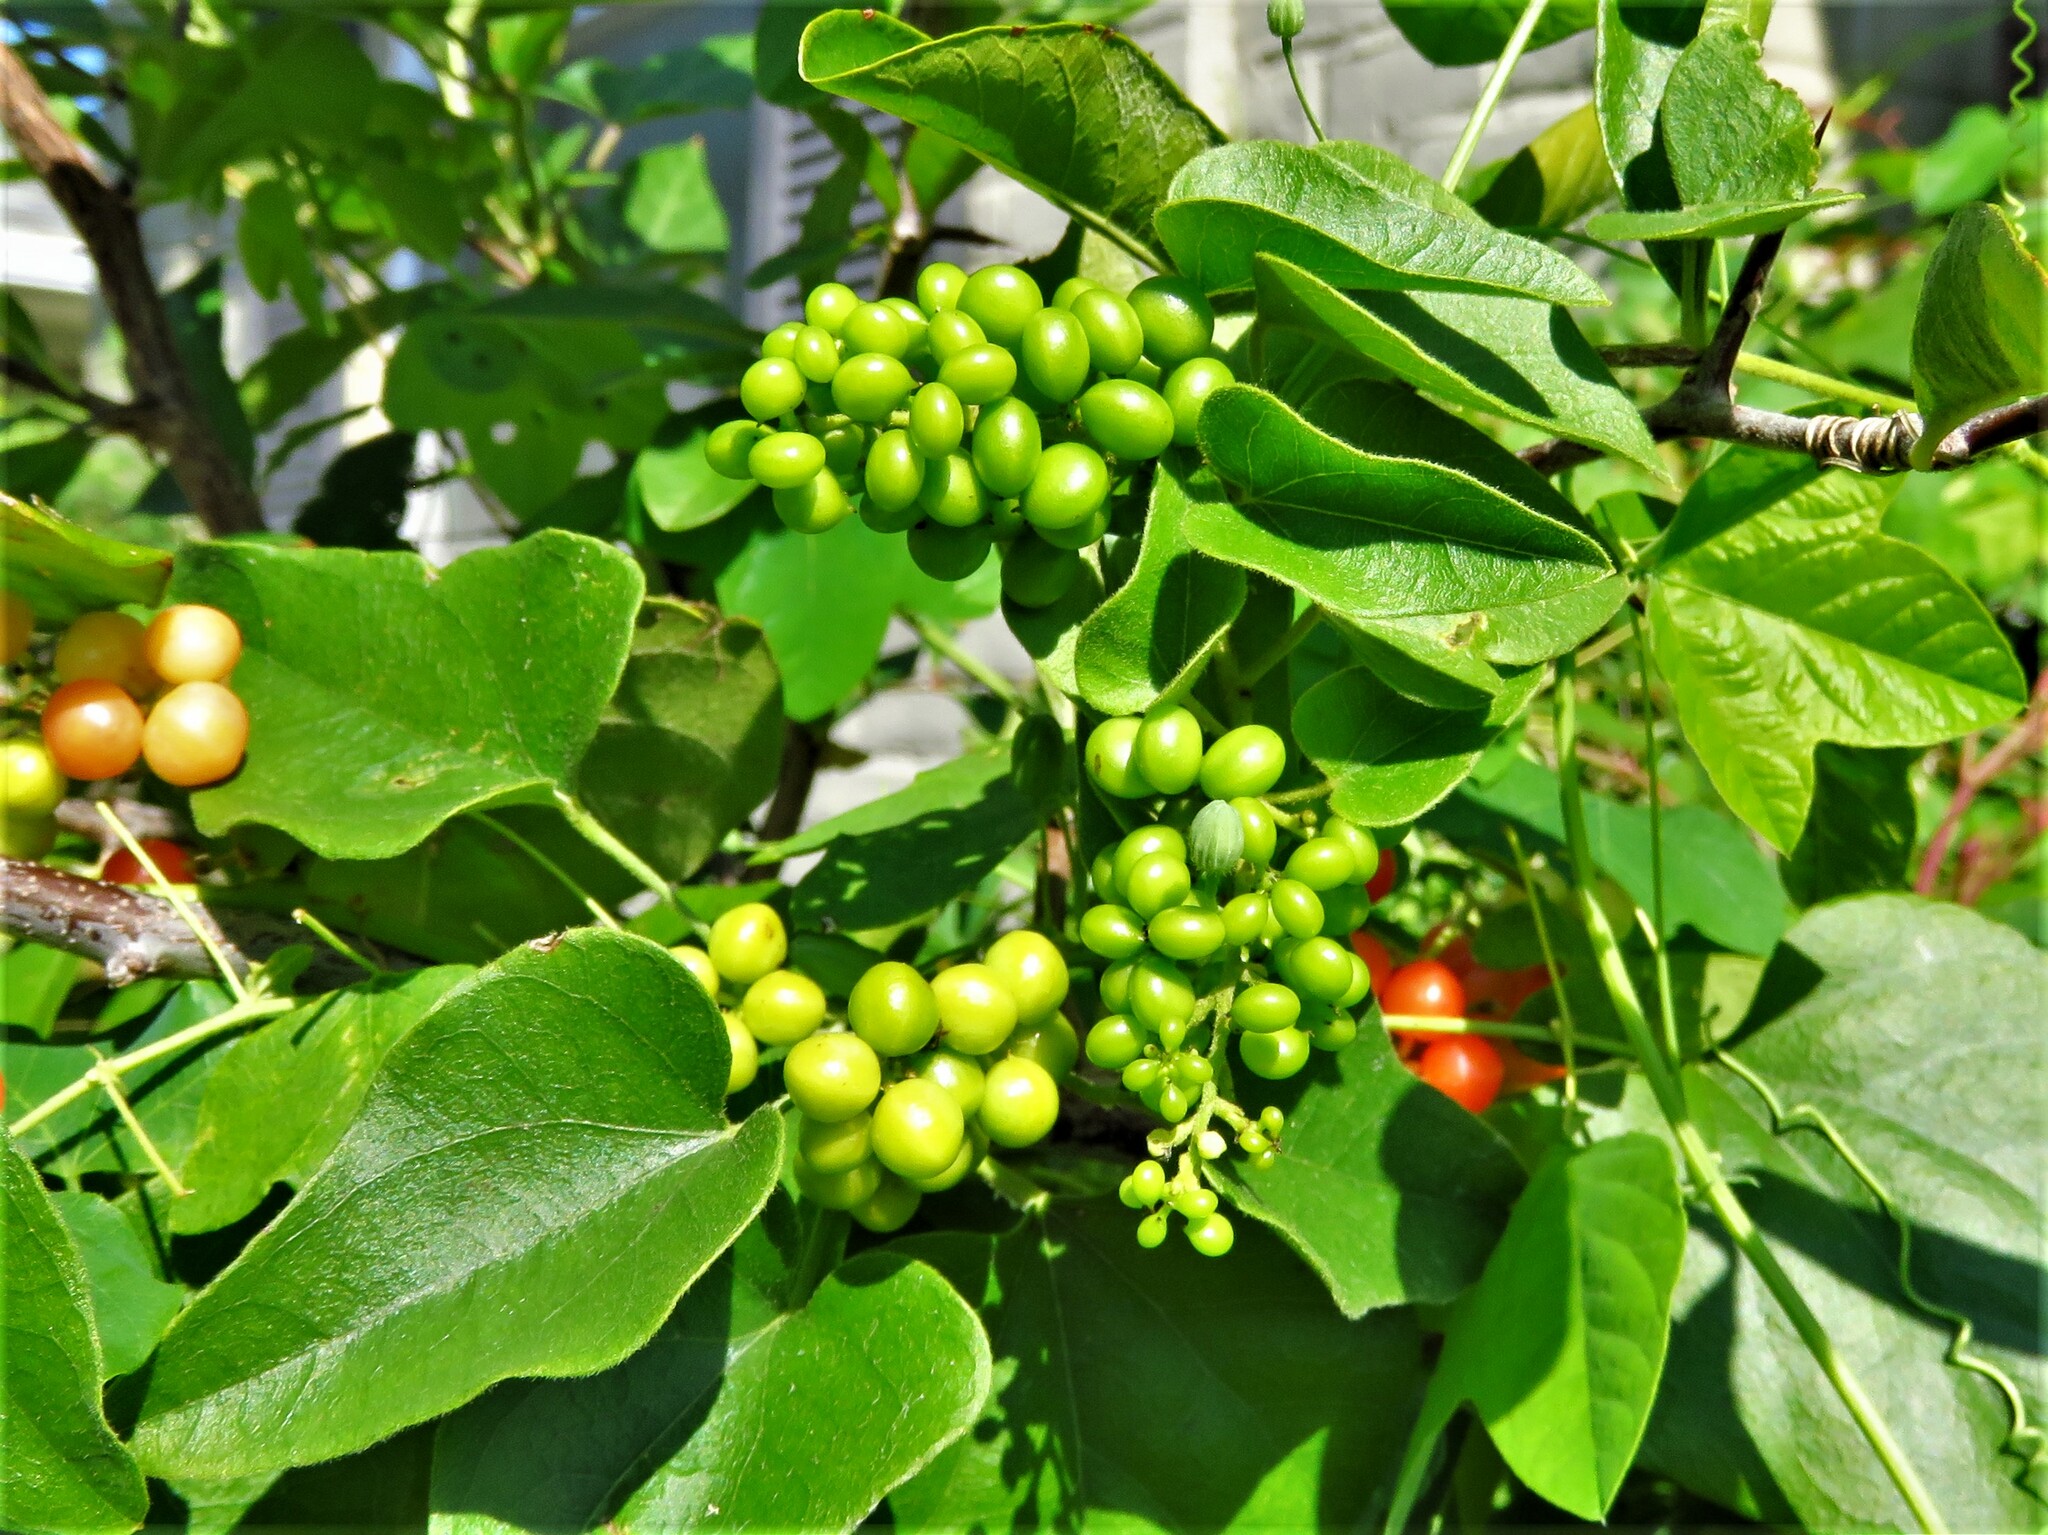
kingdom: Plantae
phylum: Tracheophyta
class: Magnoliopsida
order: Ranunculales
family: Menispermaceae
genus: Cocculus
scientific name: Cocculus carolinus
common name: Carolina moonseed
